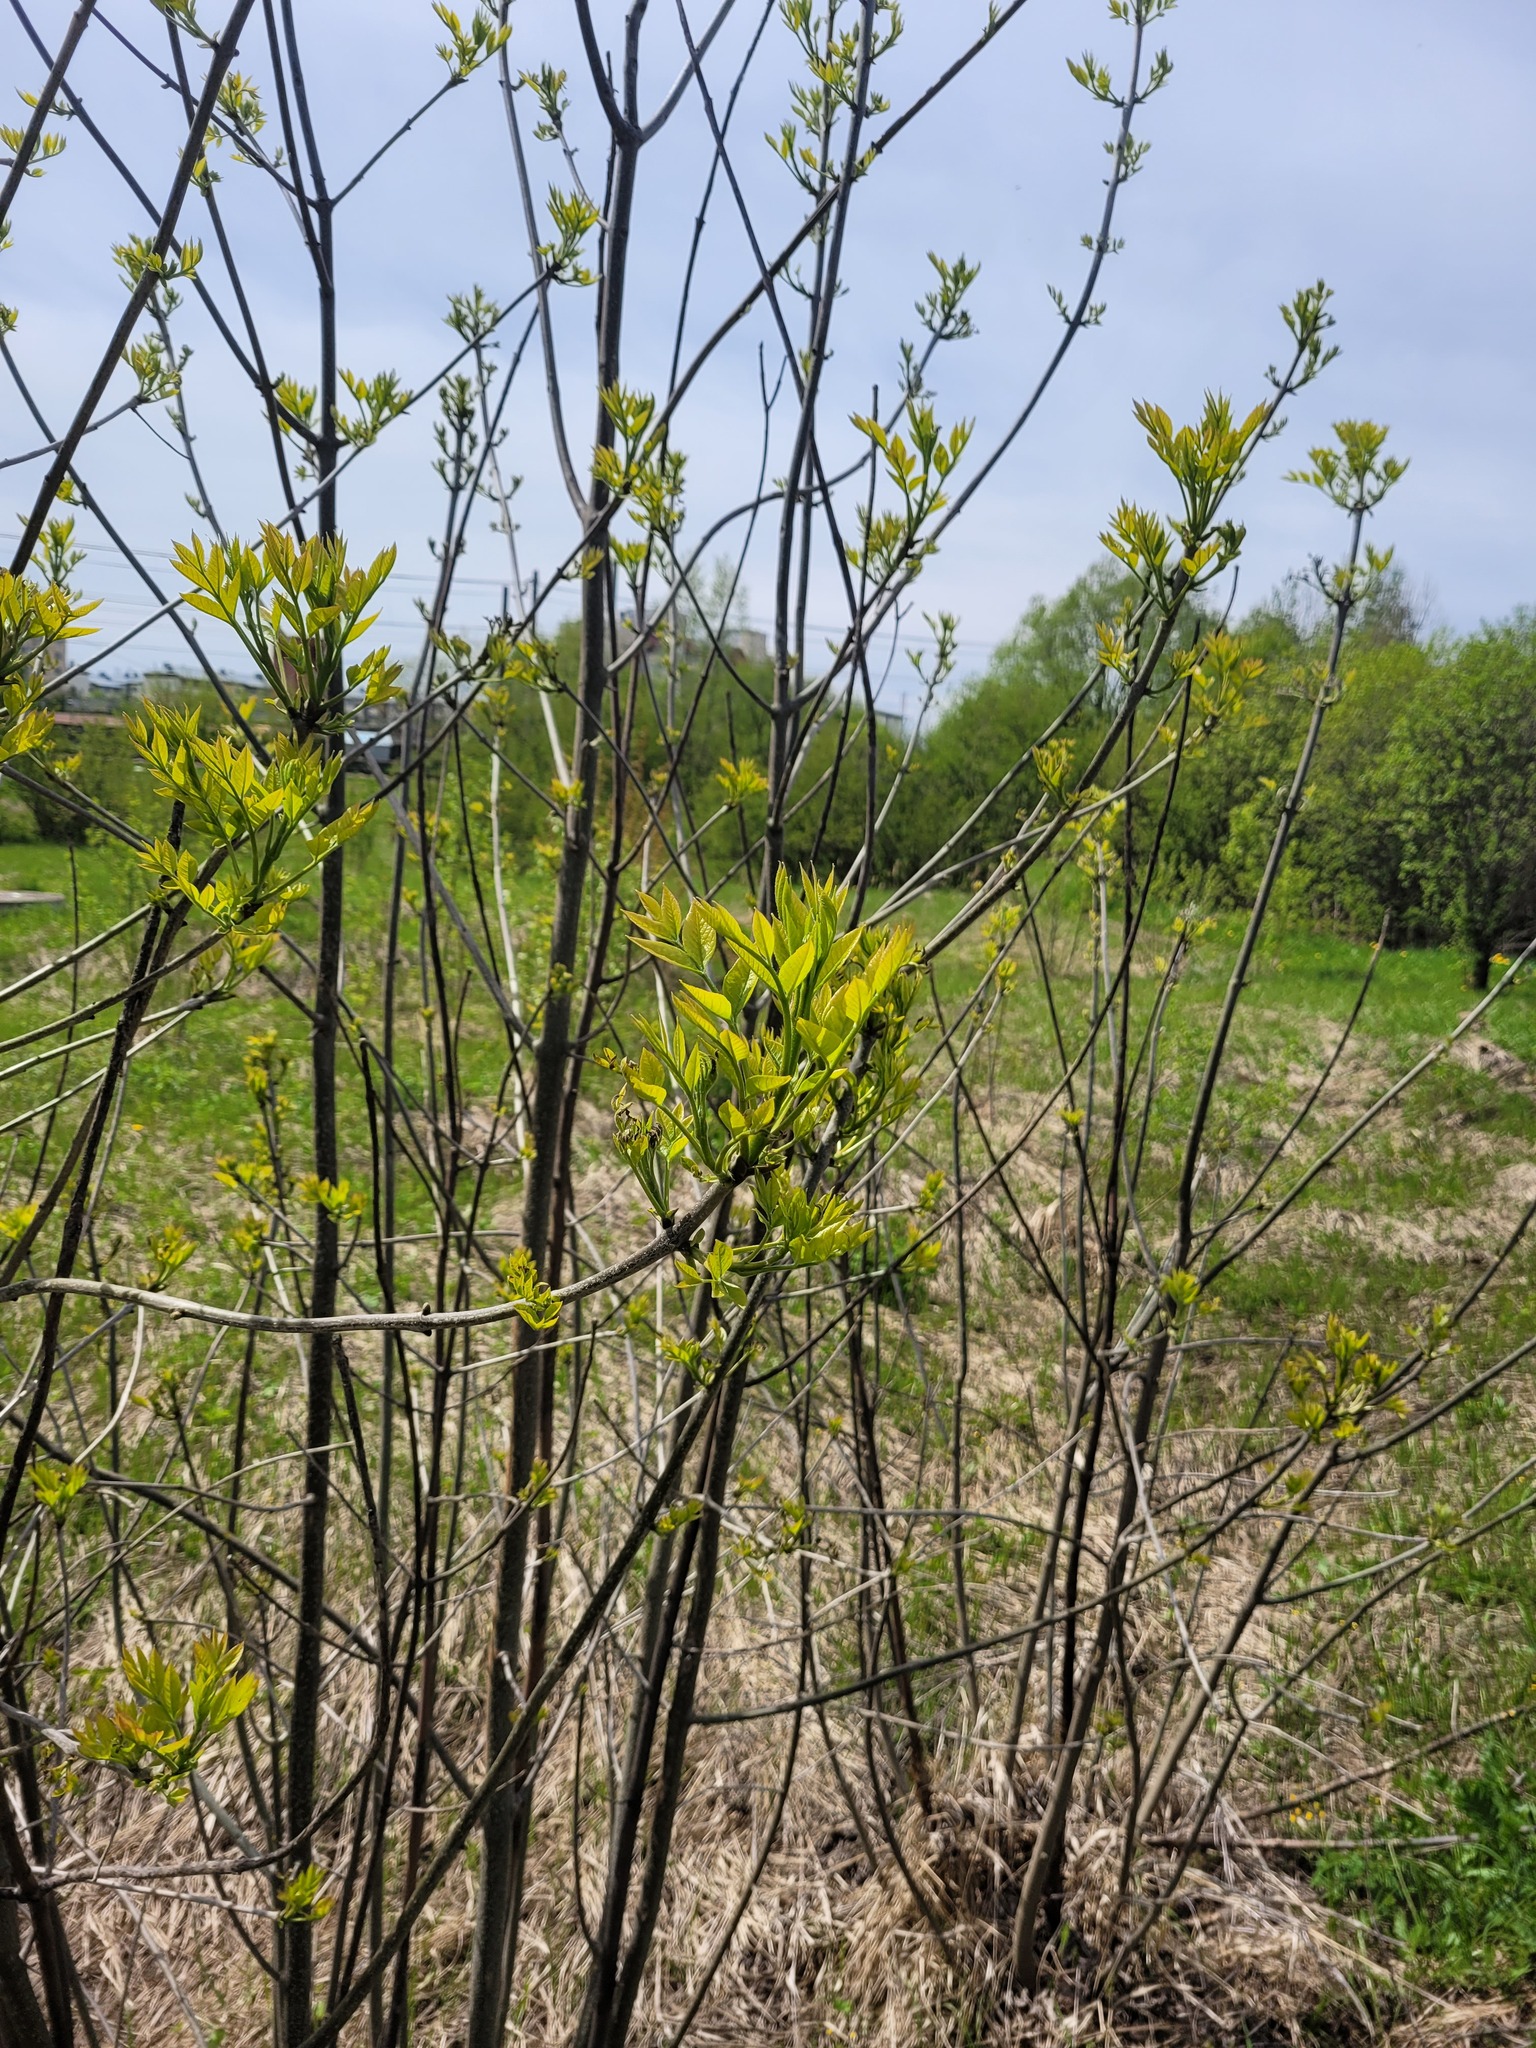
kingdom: Plantae
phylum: Tracheophyta
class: Magnoliopsida
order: Lamiales
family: Oleaceae
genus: Fraxinus
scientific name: Fraxinus pennsylvanica
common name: Green ash
